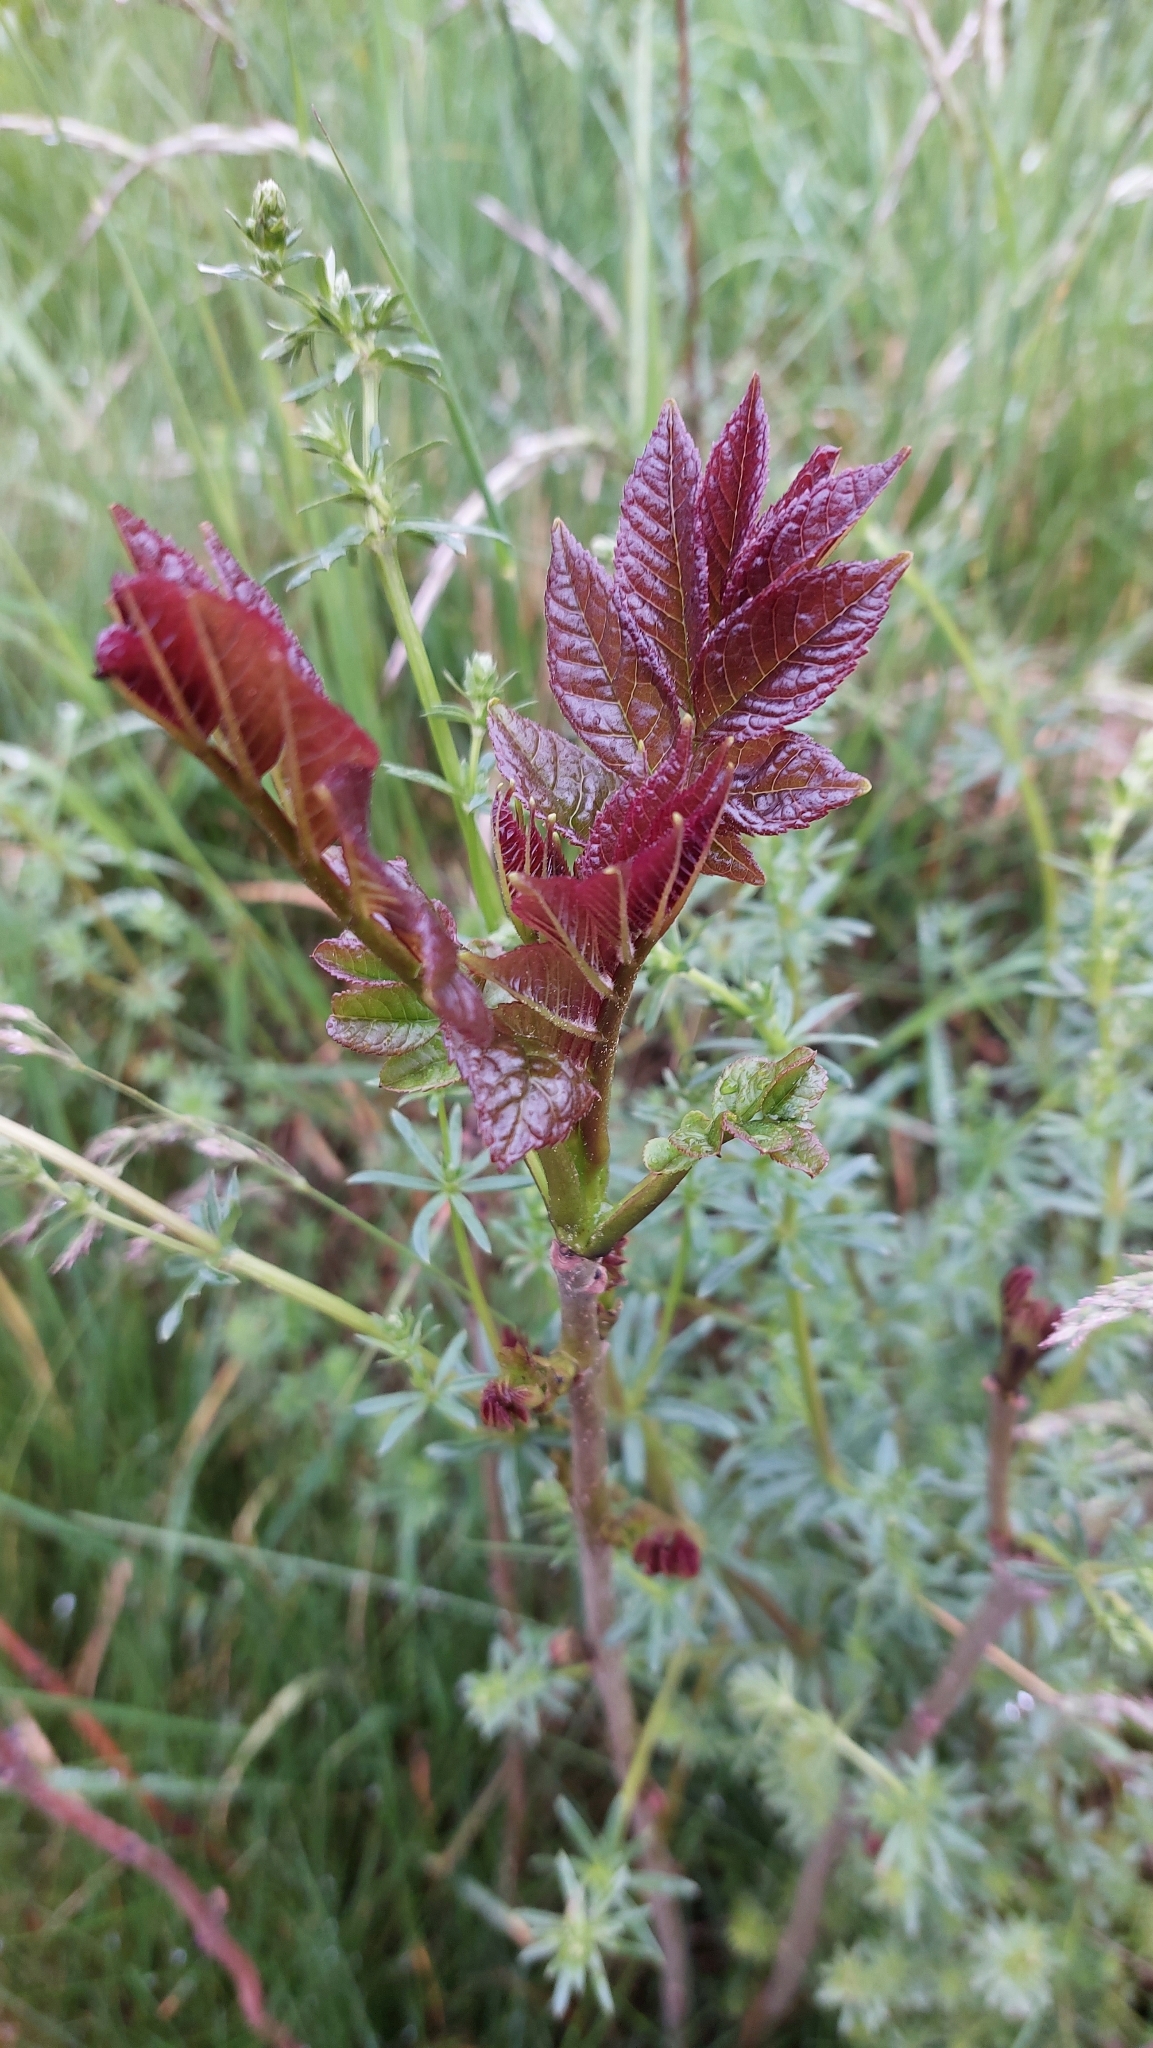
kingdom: Plantae
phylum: Tracheophyta
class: Magnoliopsida
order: Lamiales
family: Oleaceae
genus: Fraxinus
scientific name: Fraxinus excelsior
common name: European ash
